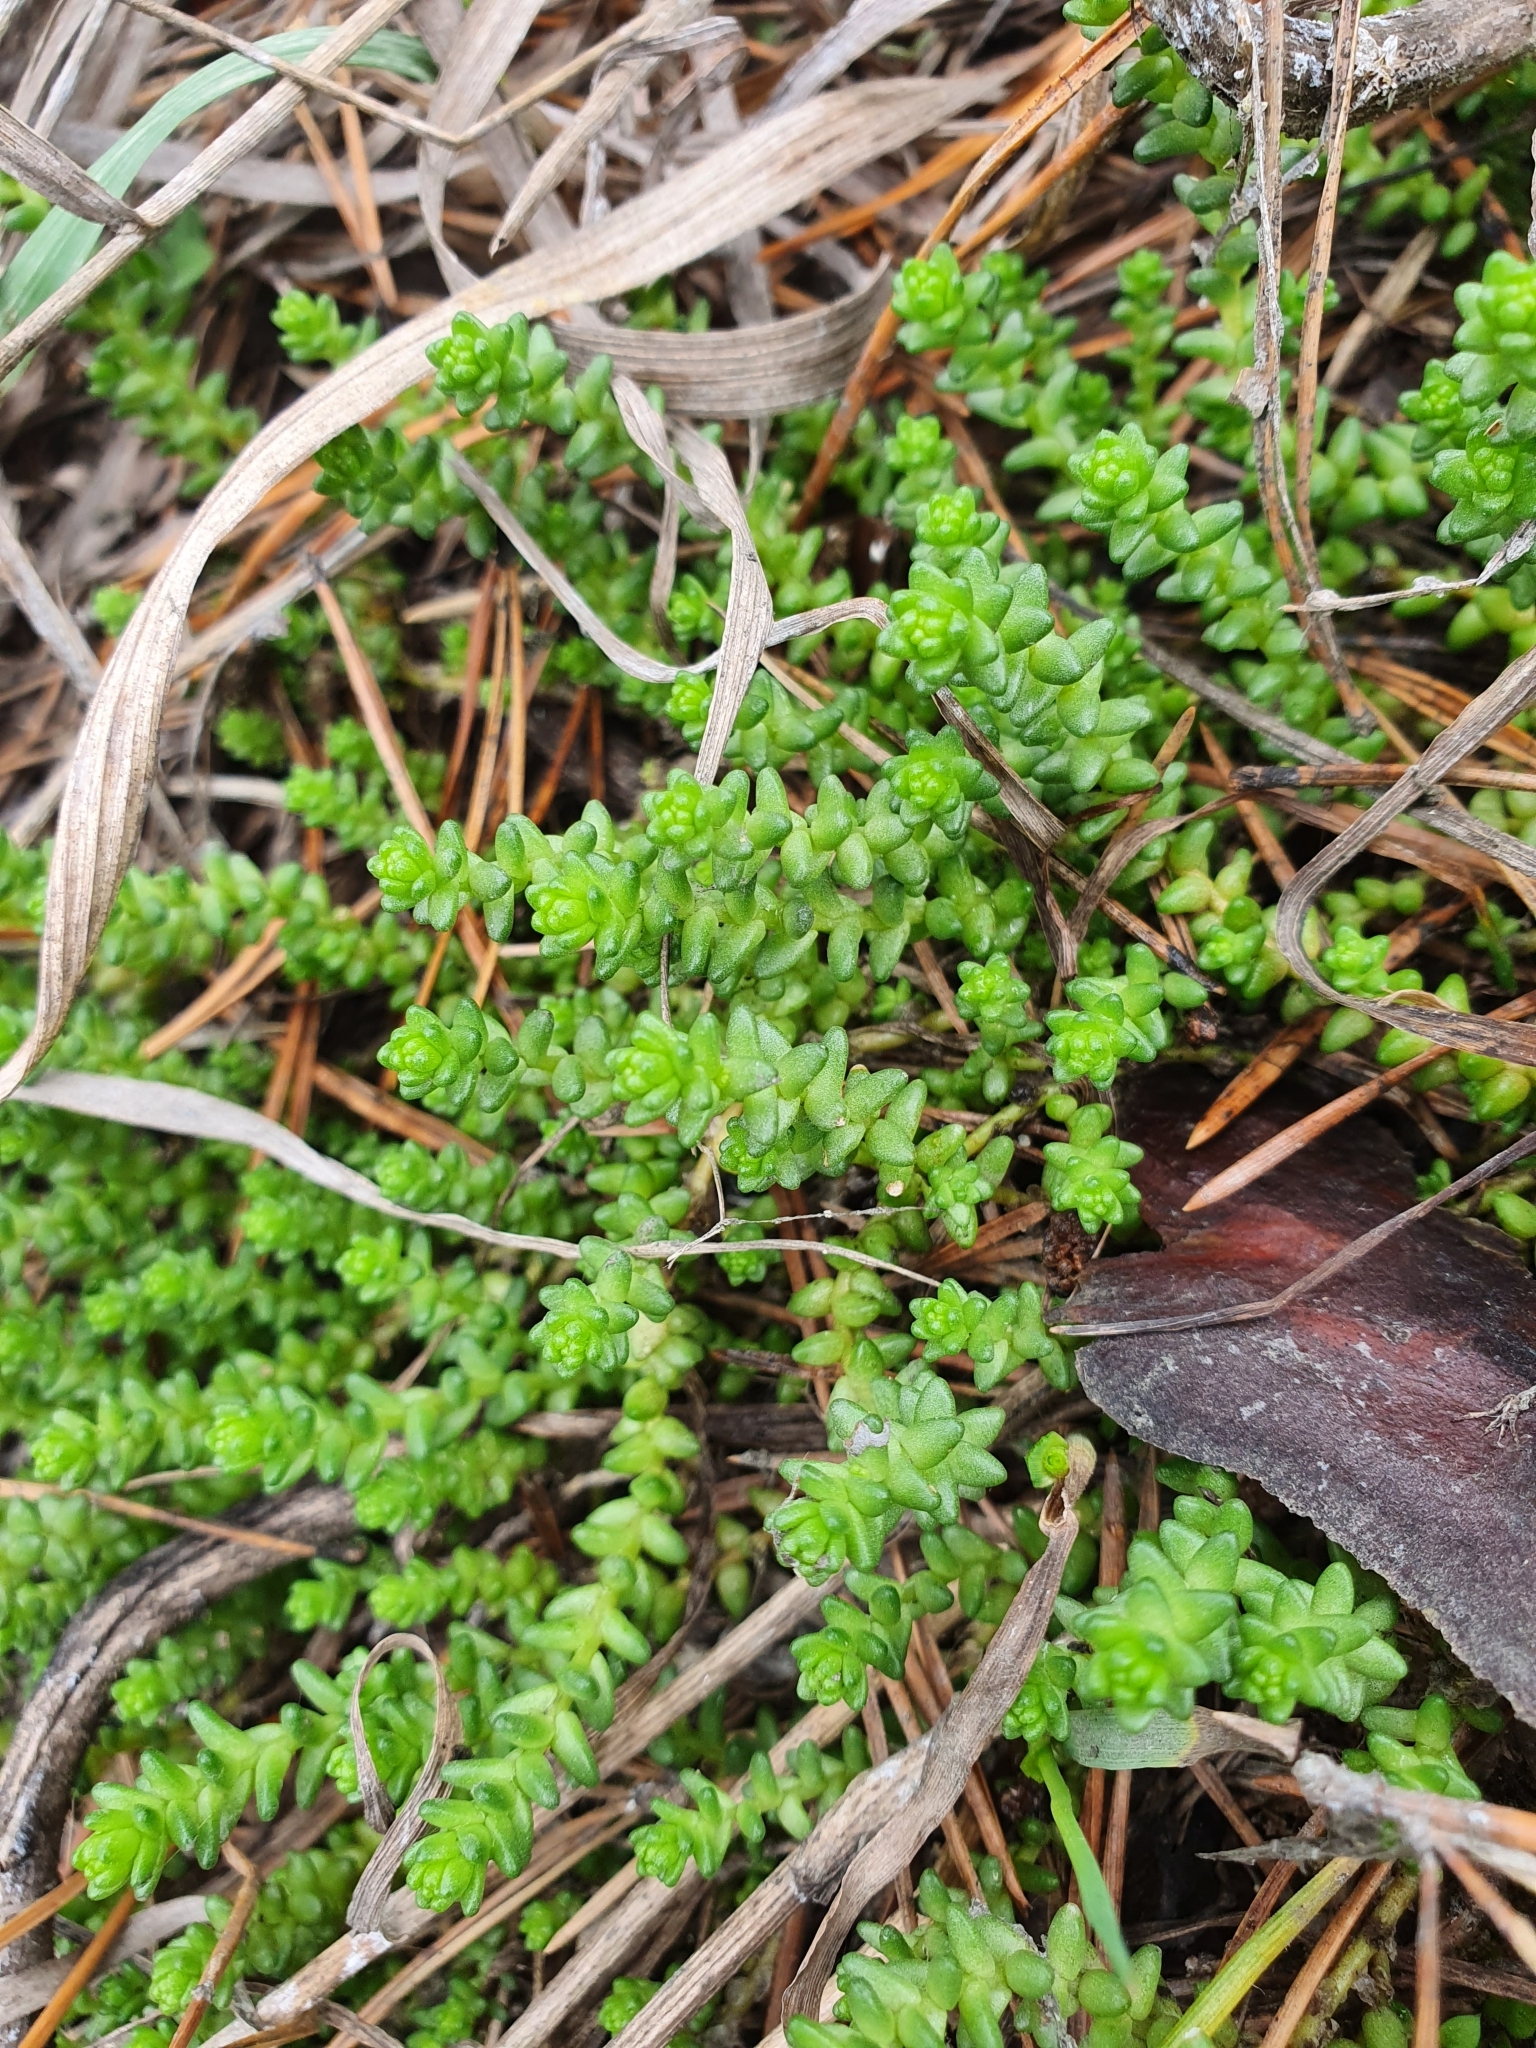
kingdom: Plantae
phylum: Tracheophyta
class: Magnoliopsida
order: Saxifragales
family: Crassulaceae
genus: Sedum
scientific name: Sedum acre
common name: Biting stonecrop
